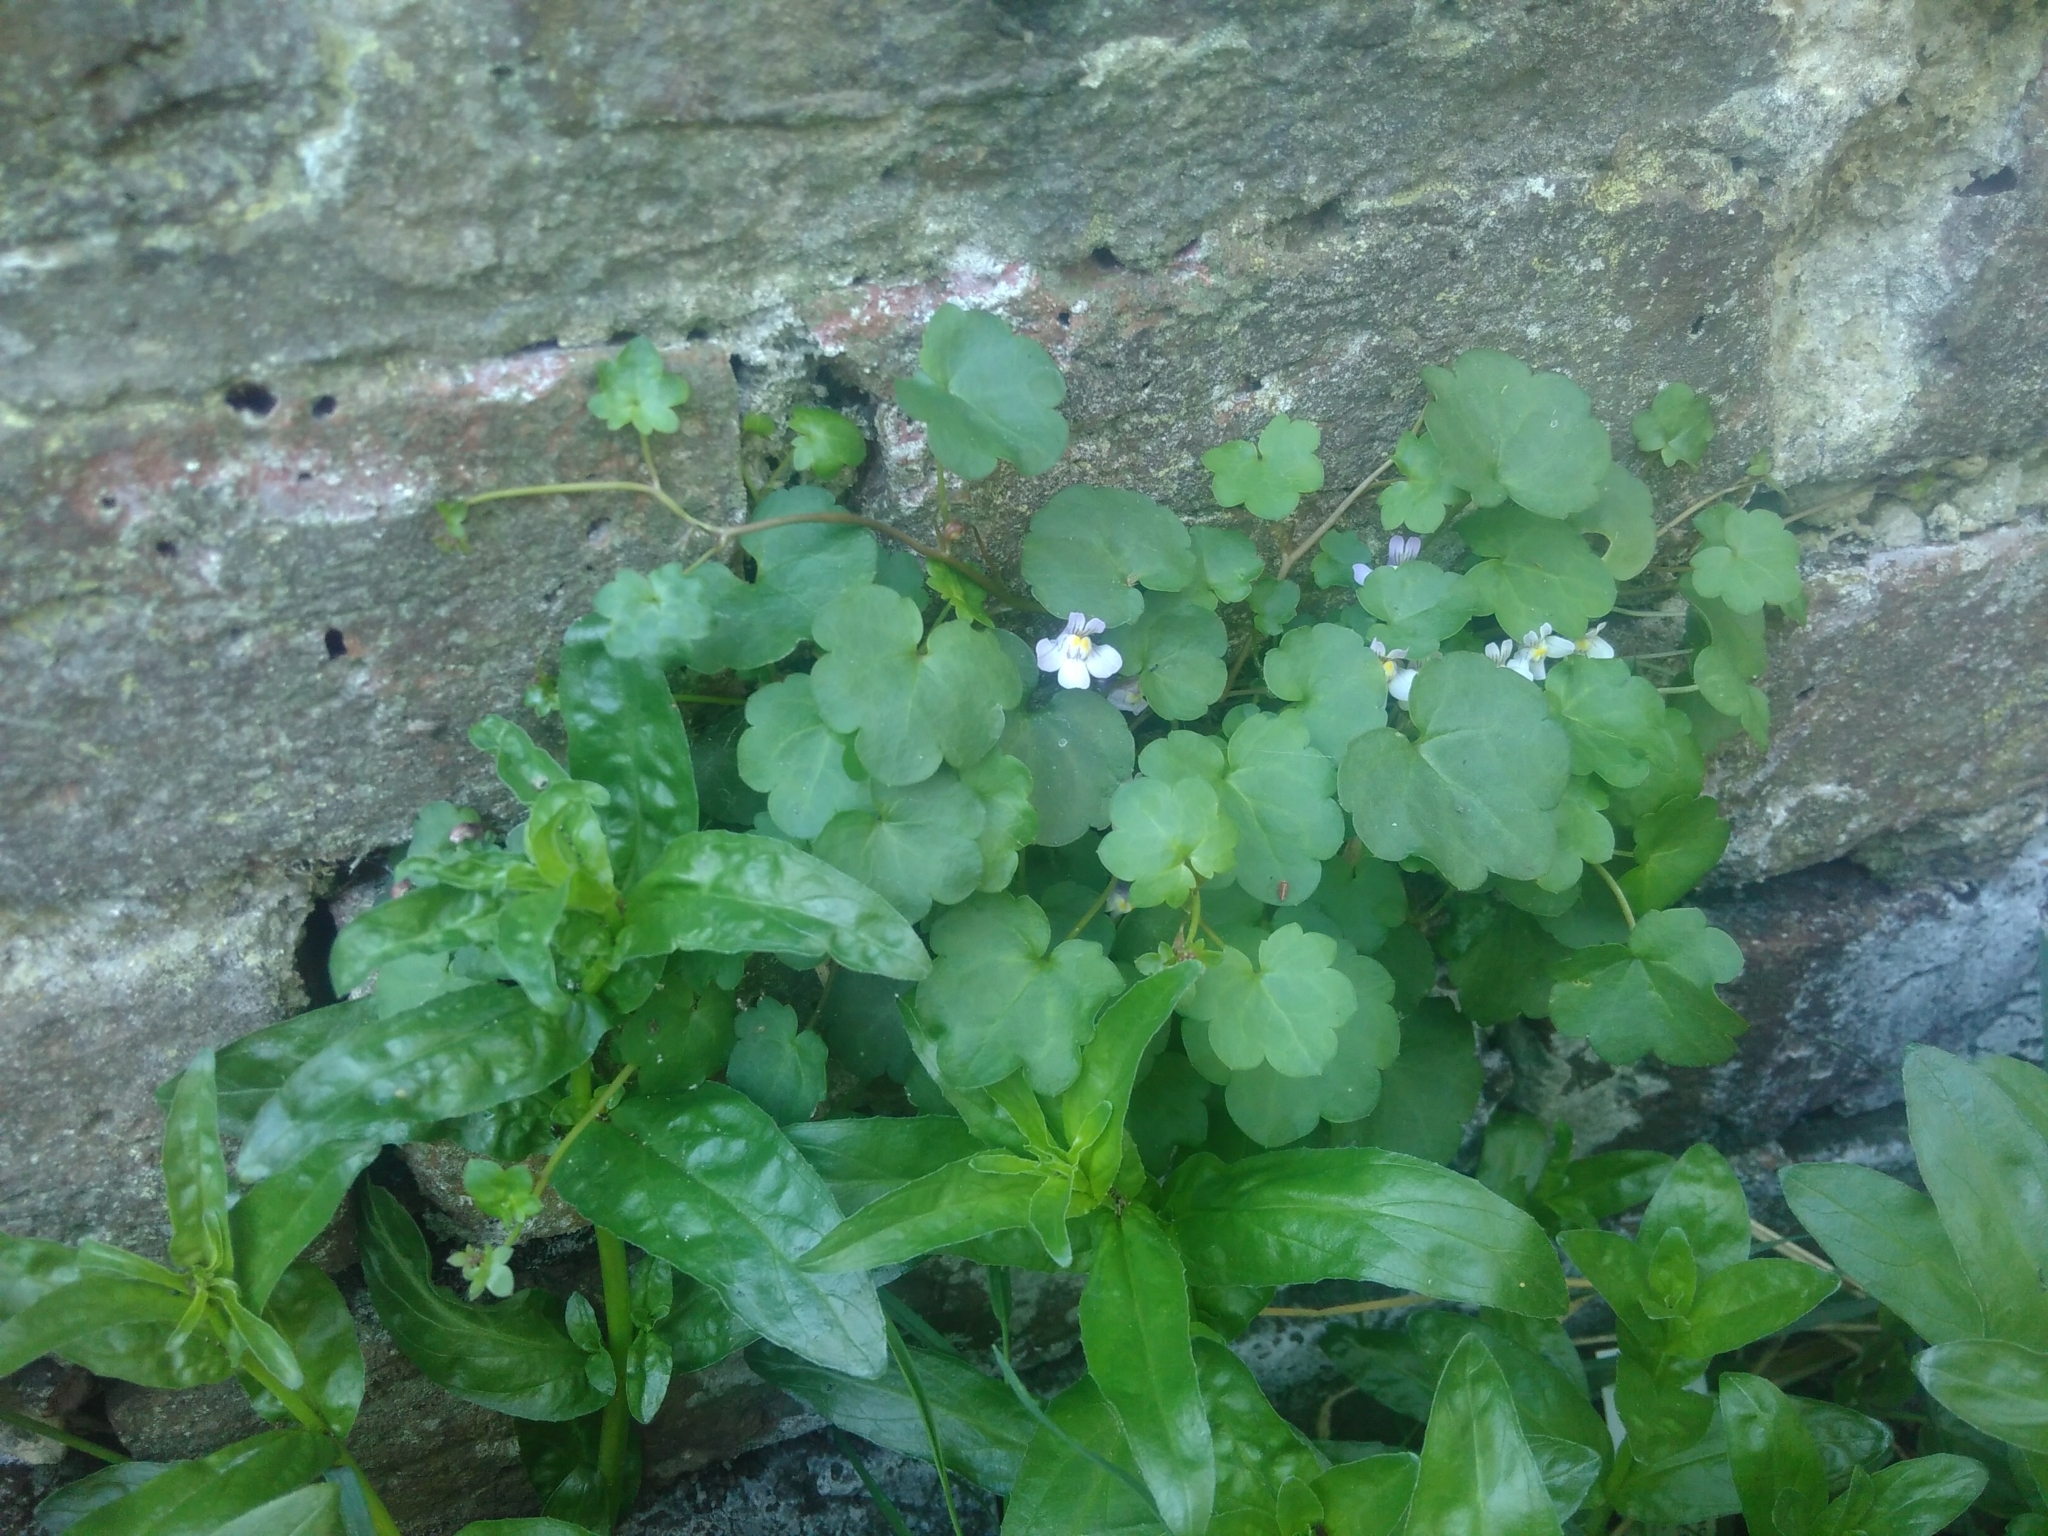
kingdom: Plantae
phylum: Tracheophyta
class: Magnoliopsida
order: Lamiales
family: Plantaginaceae
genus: Cymbalaria
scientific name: Cymbalaria muralis
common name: Ivy-leaved toadflax
